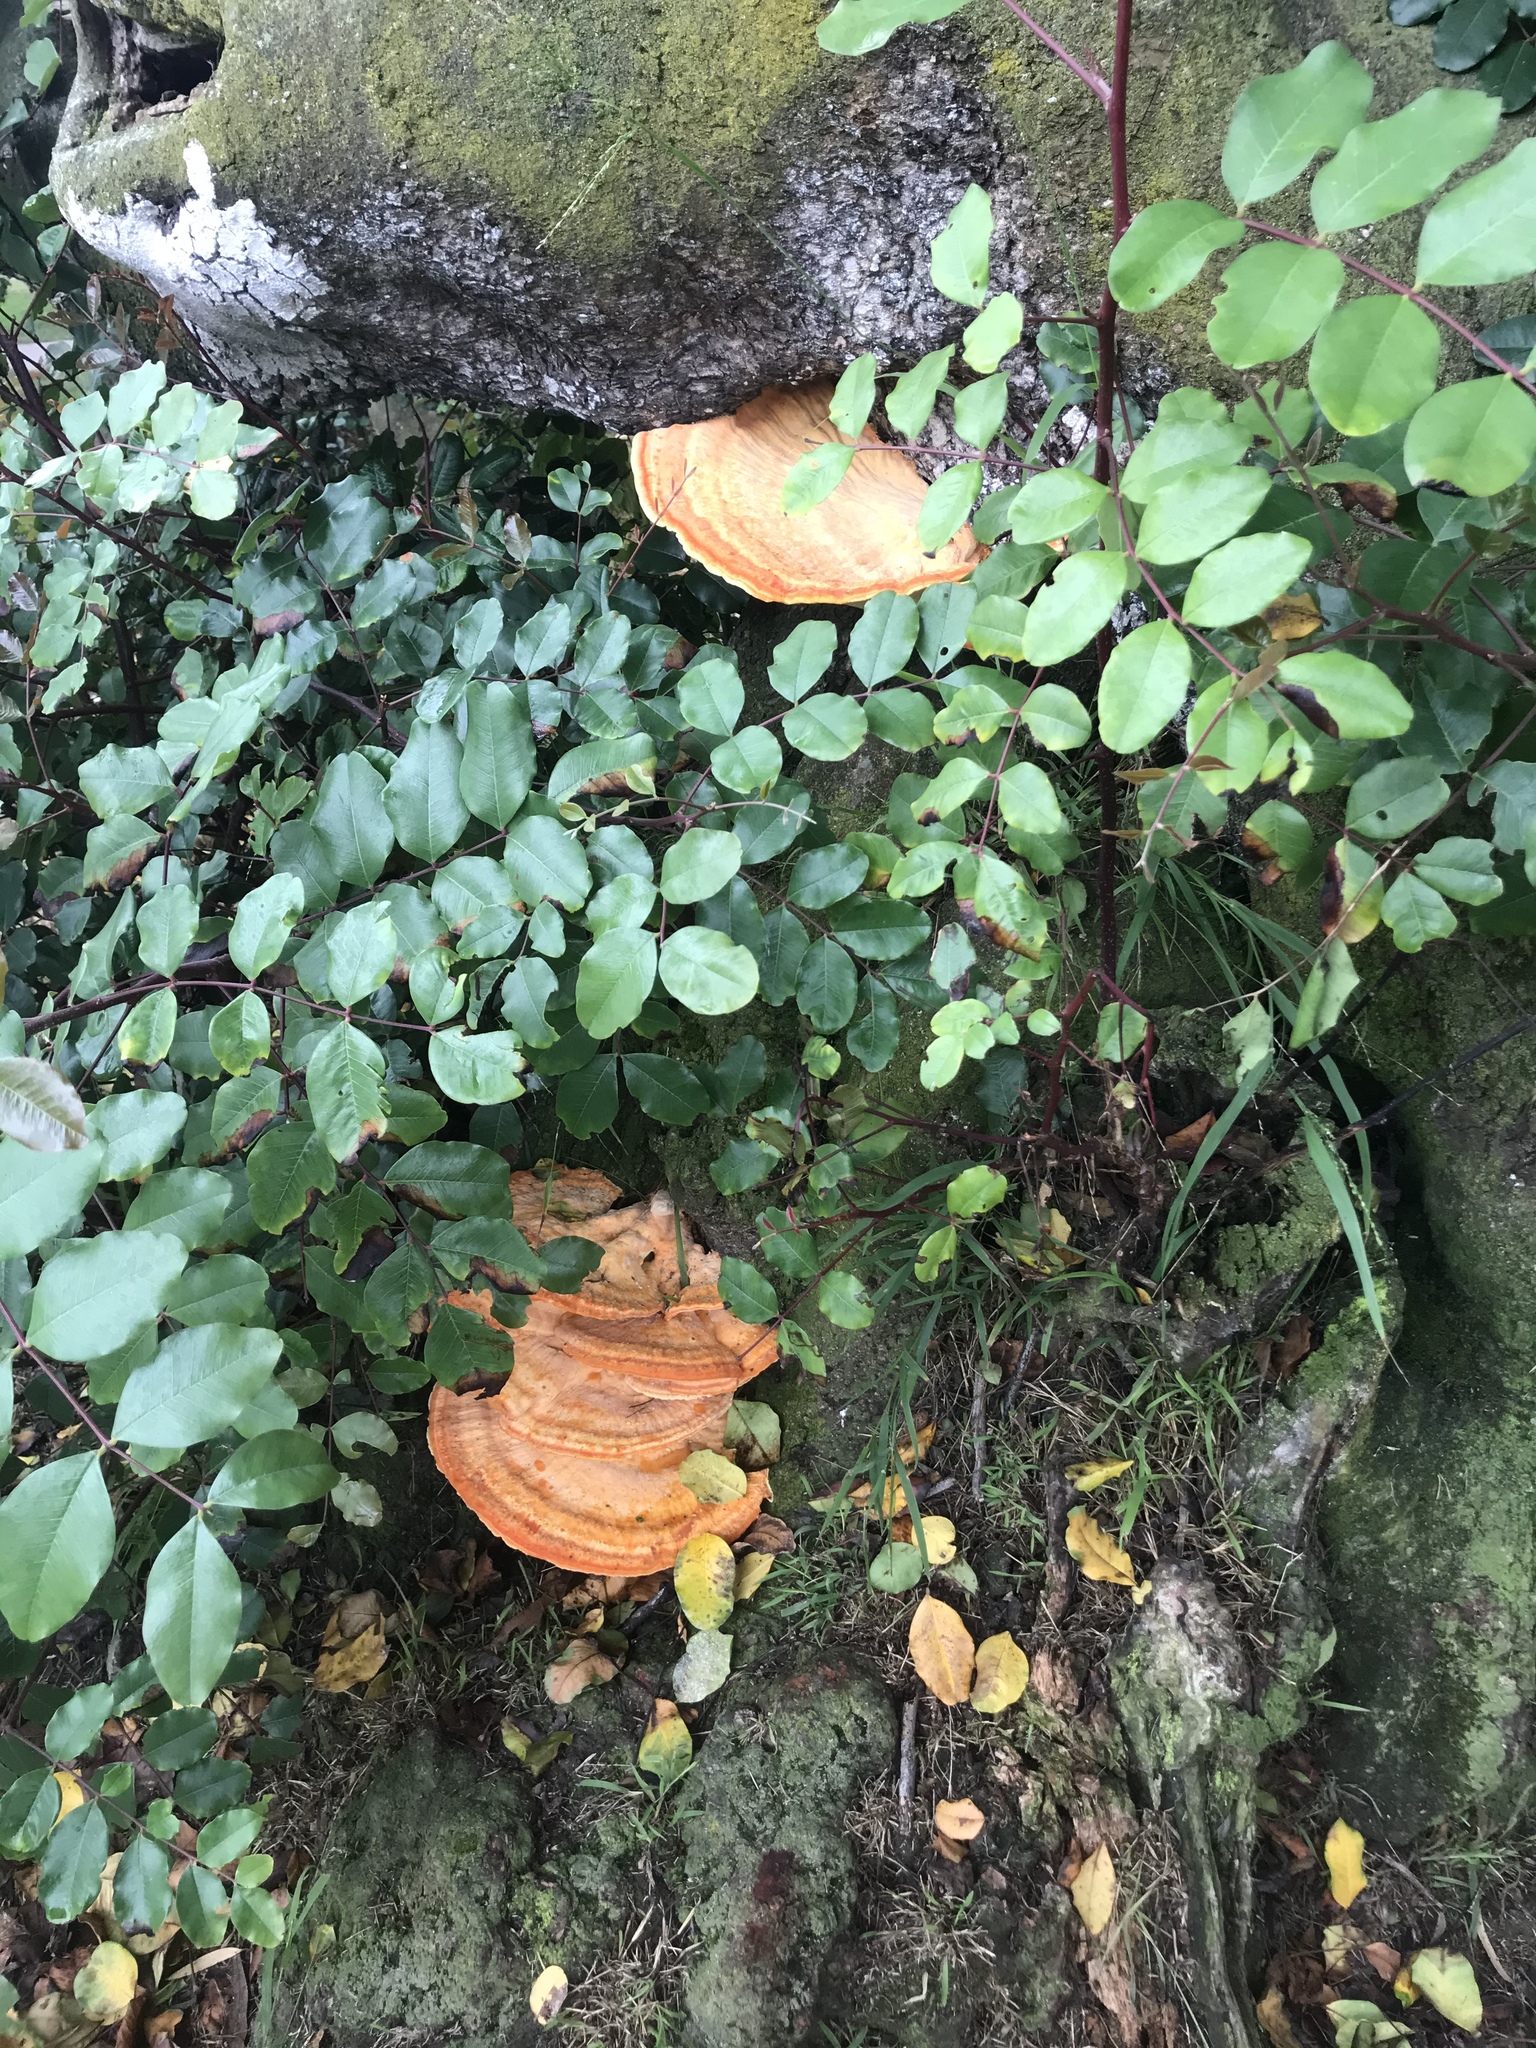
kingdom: Fungi
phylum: Basidiomycota
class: Agaricomycetes
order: Polyporales
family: Laetiporaceae
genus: Laetiporus
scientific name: Laetiporus gilbertsonii
